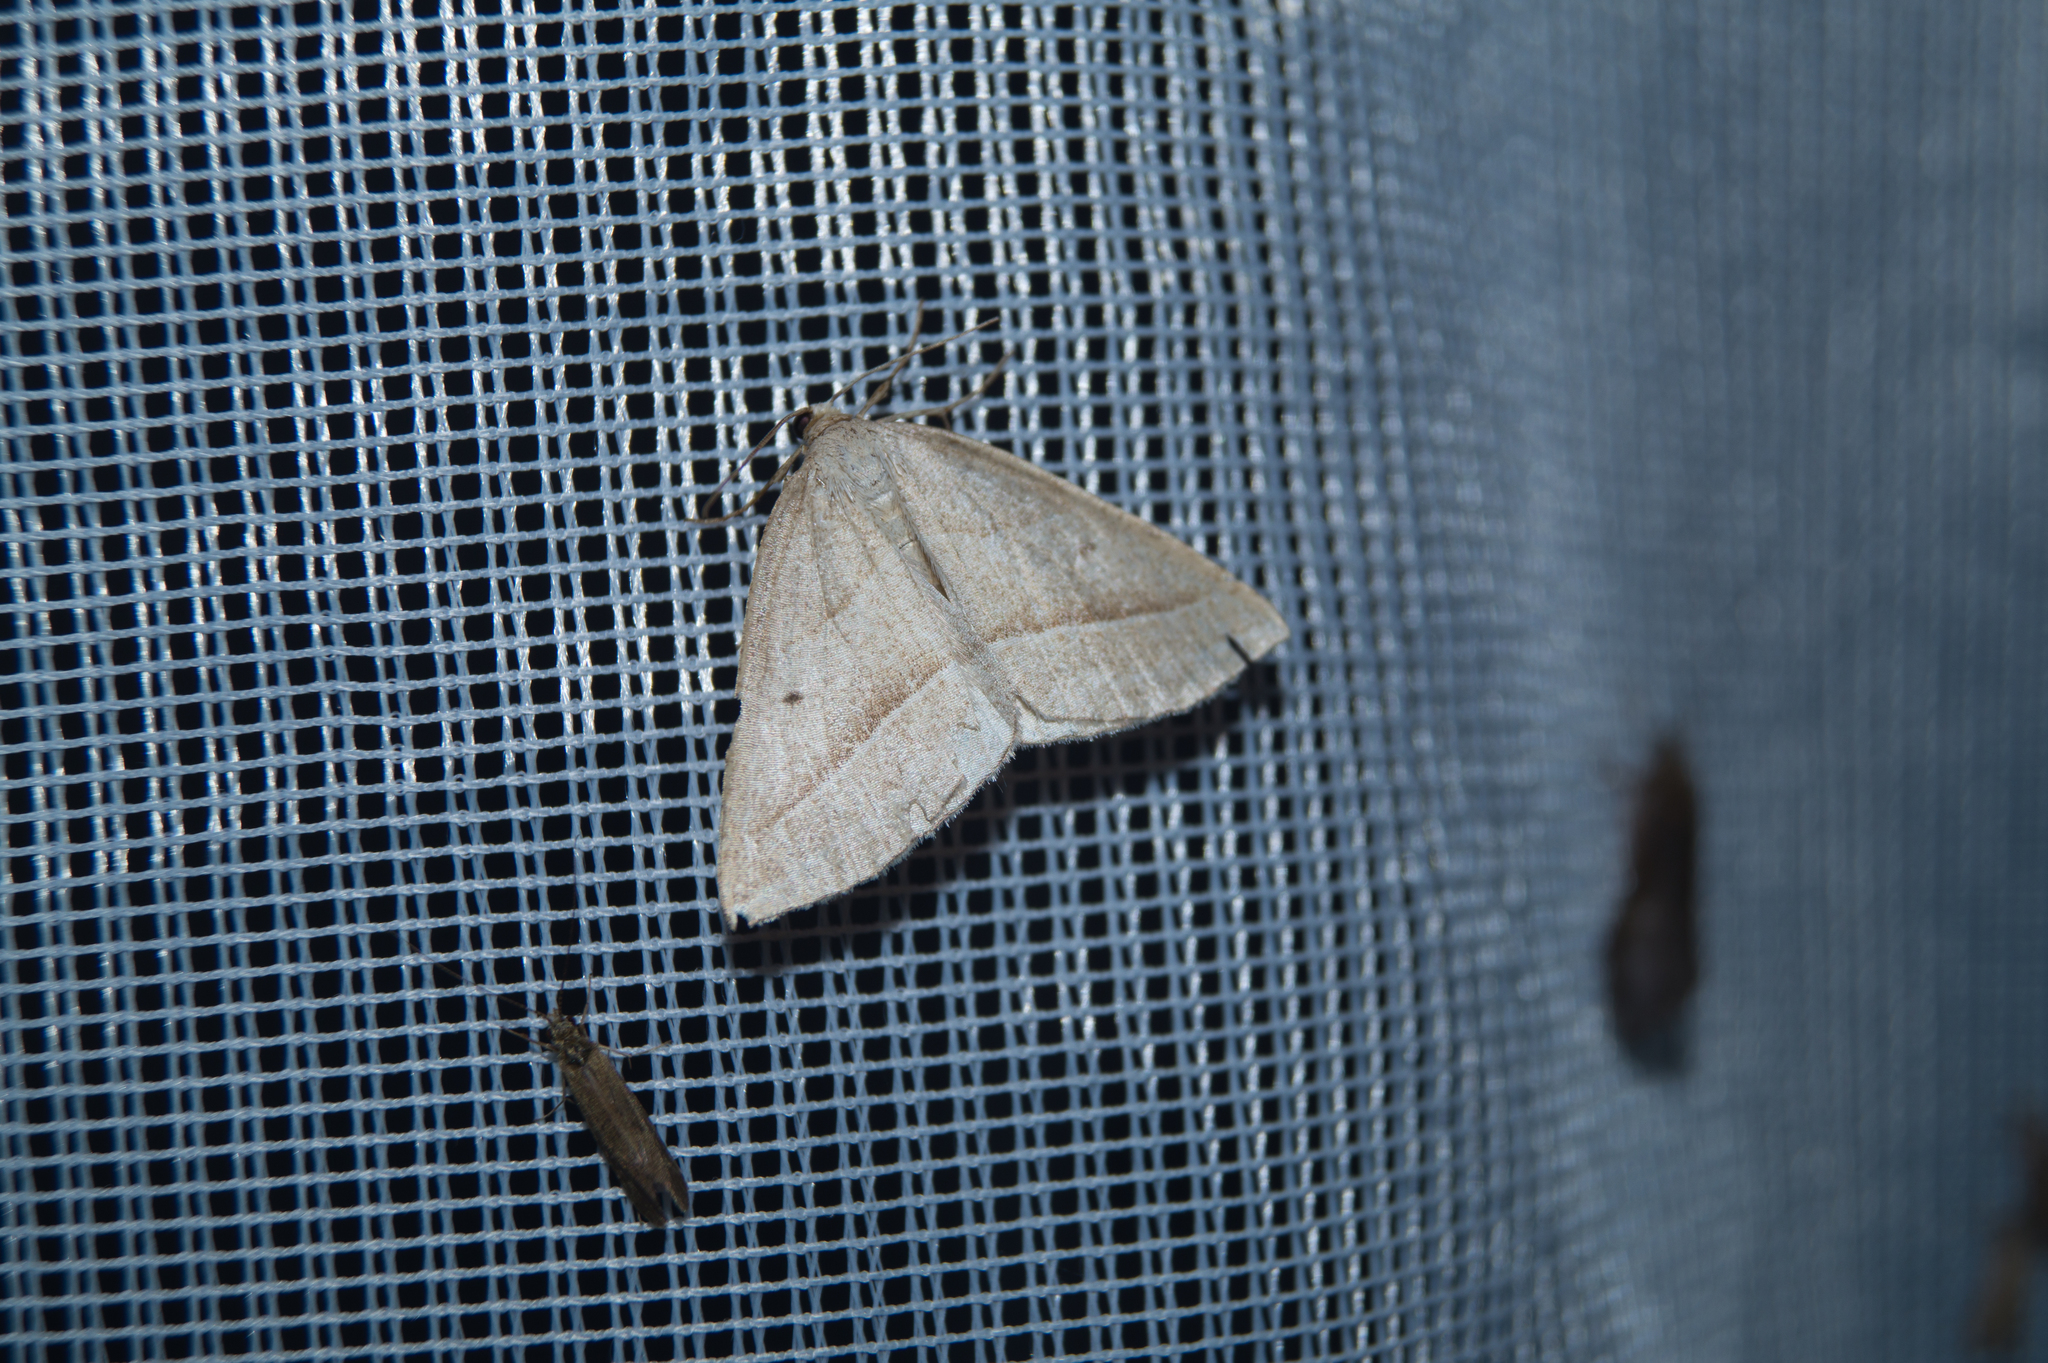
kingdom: Animalia
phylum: Arthropoda
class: Insecta
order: Lepidoptera
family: Pterophoridae
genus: Pterophorus
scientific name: Pterophorus Petrophora chlorosata
